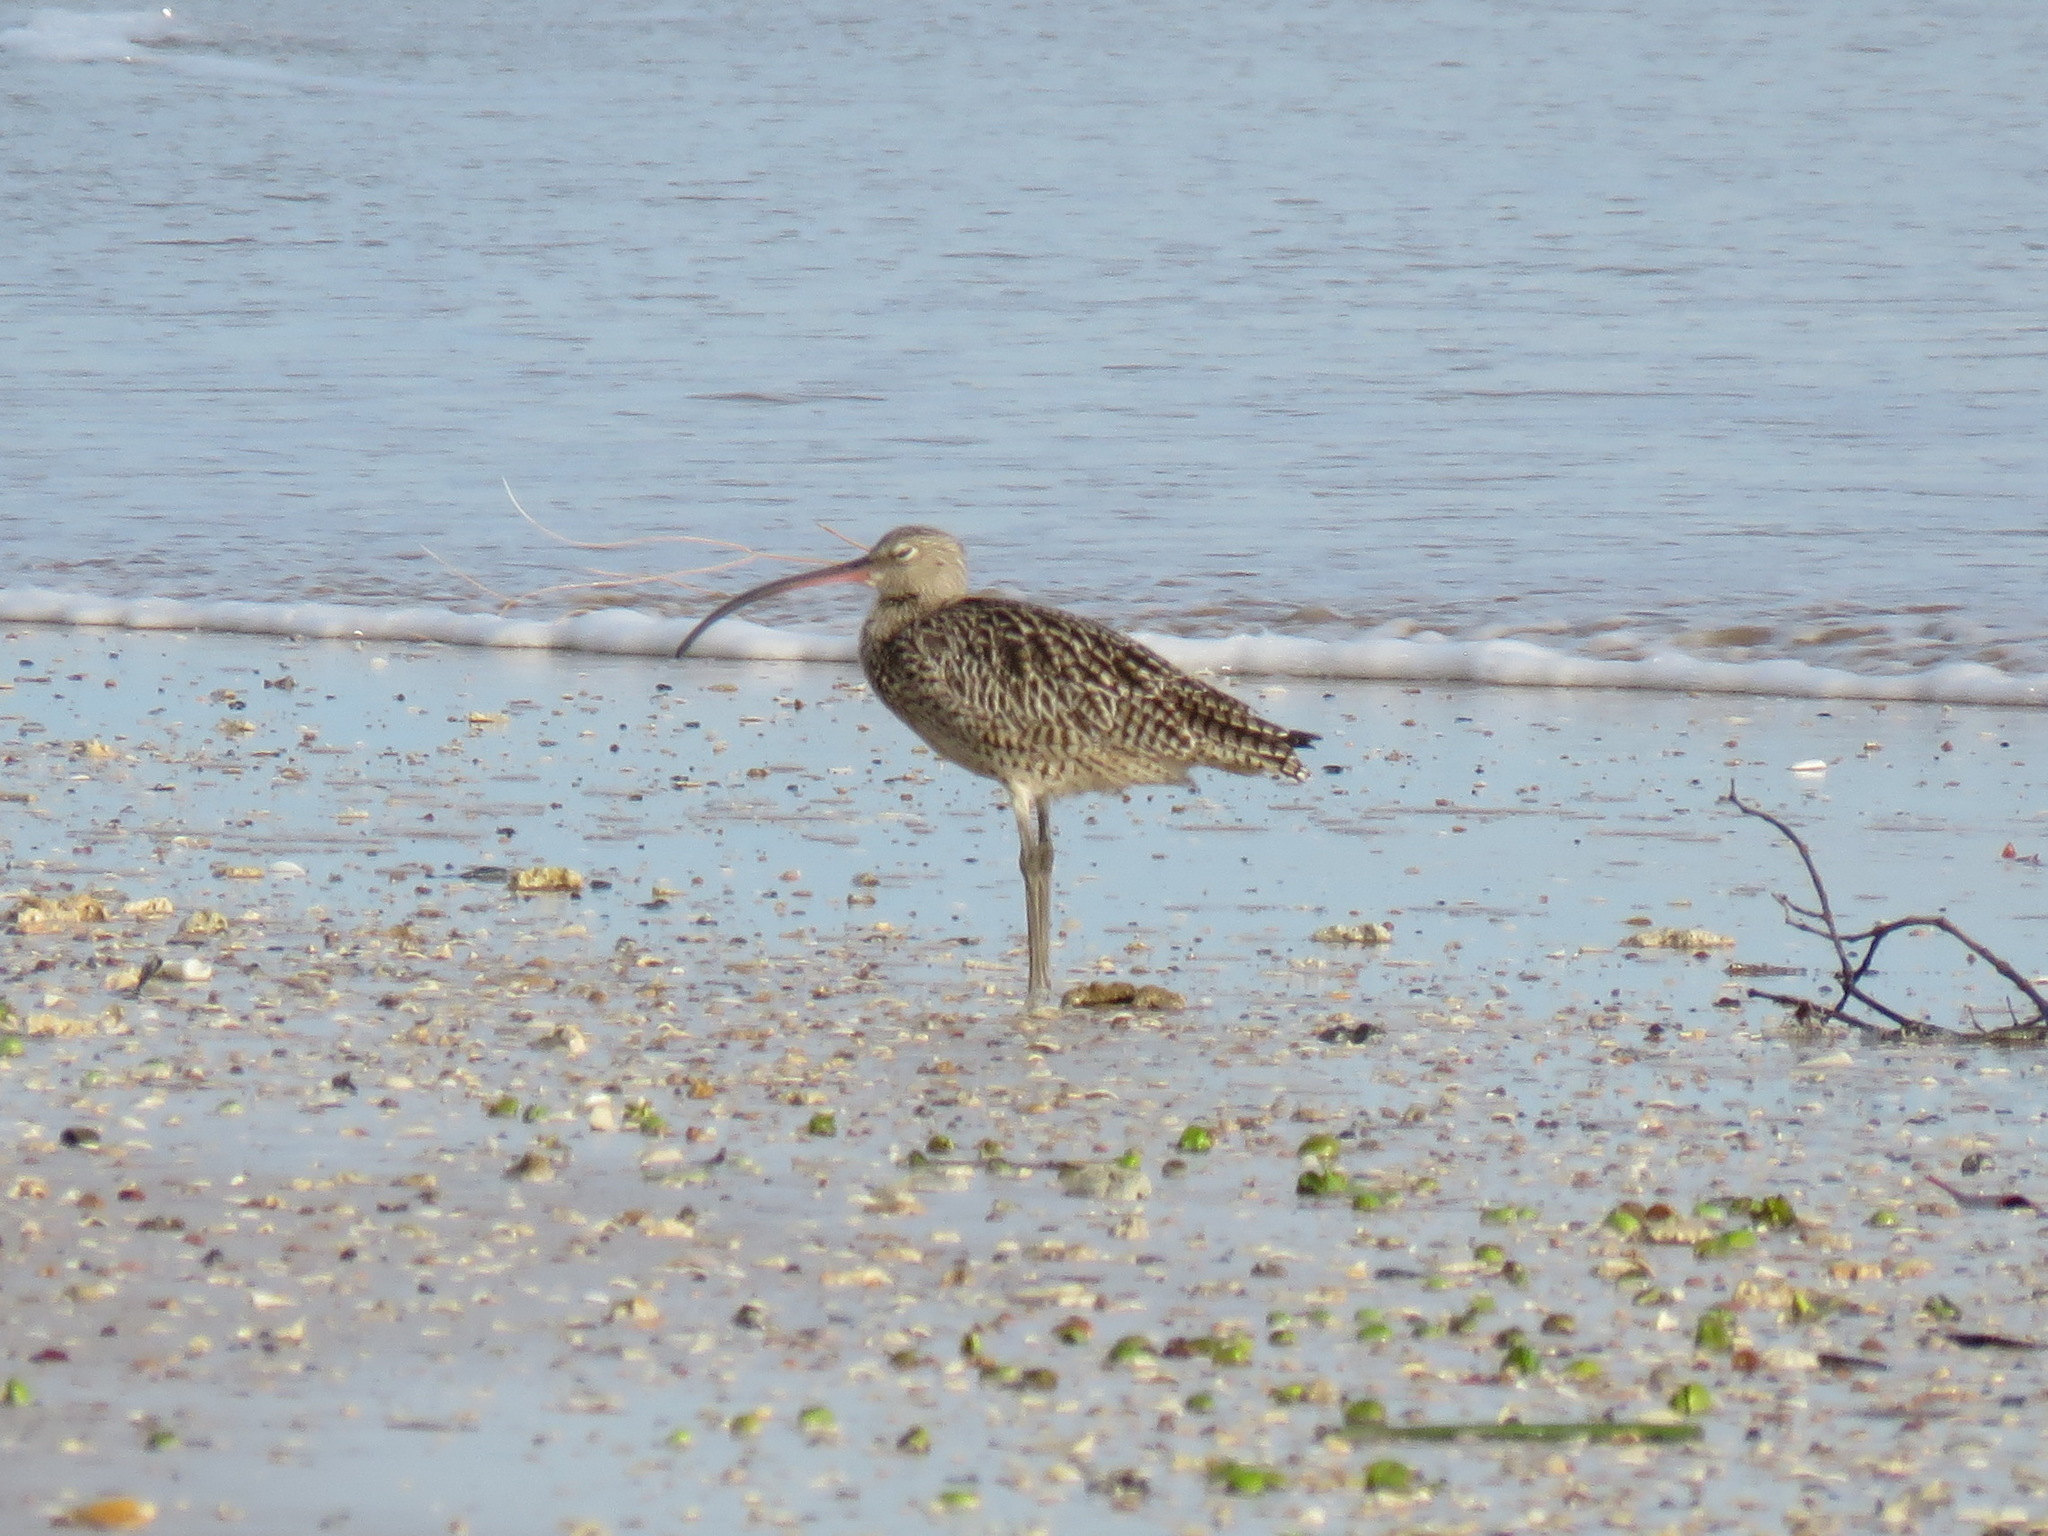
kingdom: Animalia
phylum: Chordata
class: Aves
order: Charadriiformes
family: Scolopacidae
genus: Numenius
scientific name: Numenius madagascariensis
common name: Far eastern curlew
